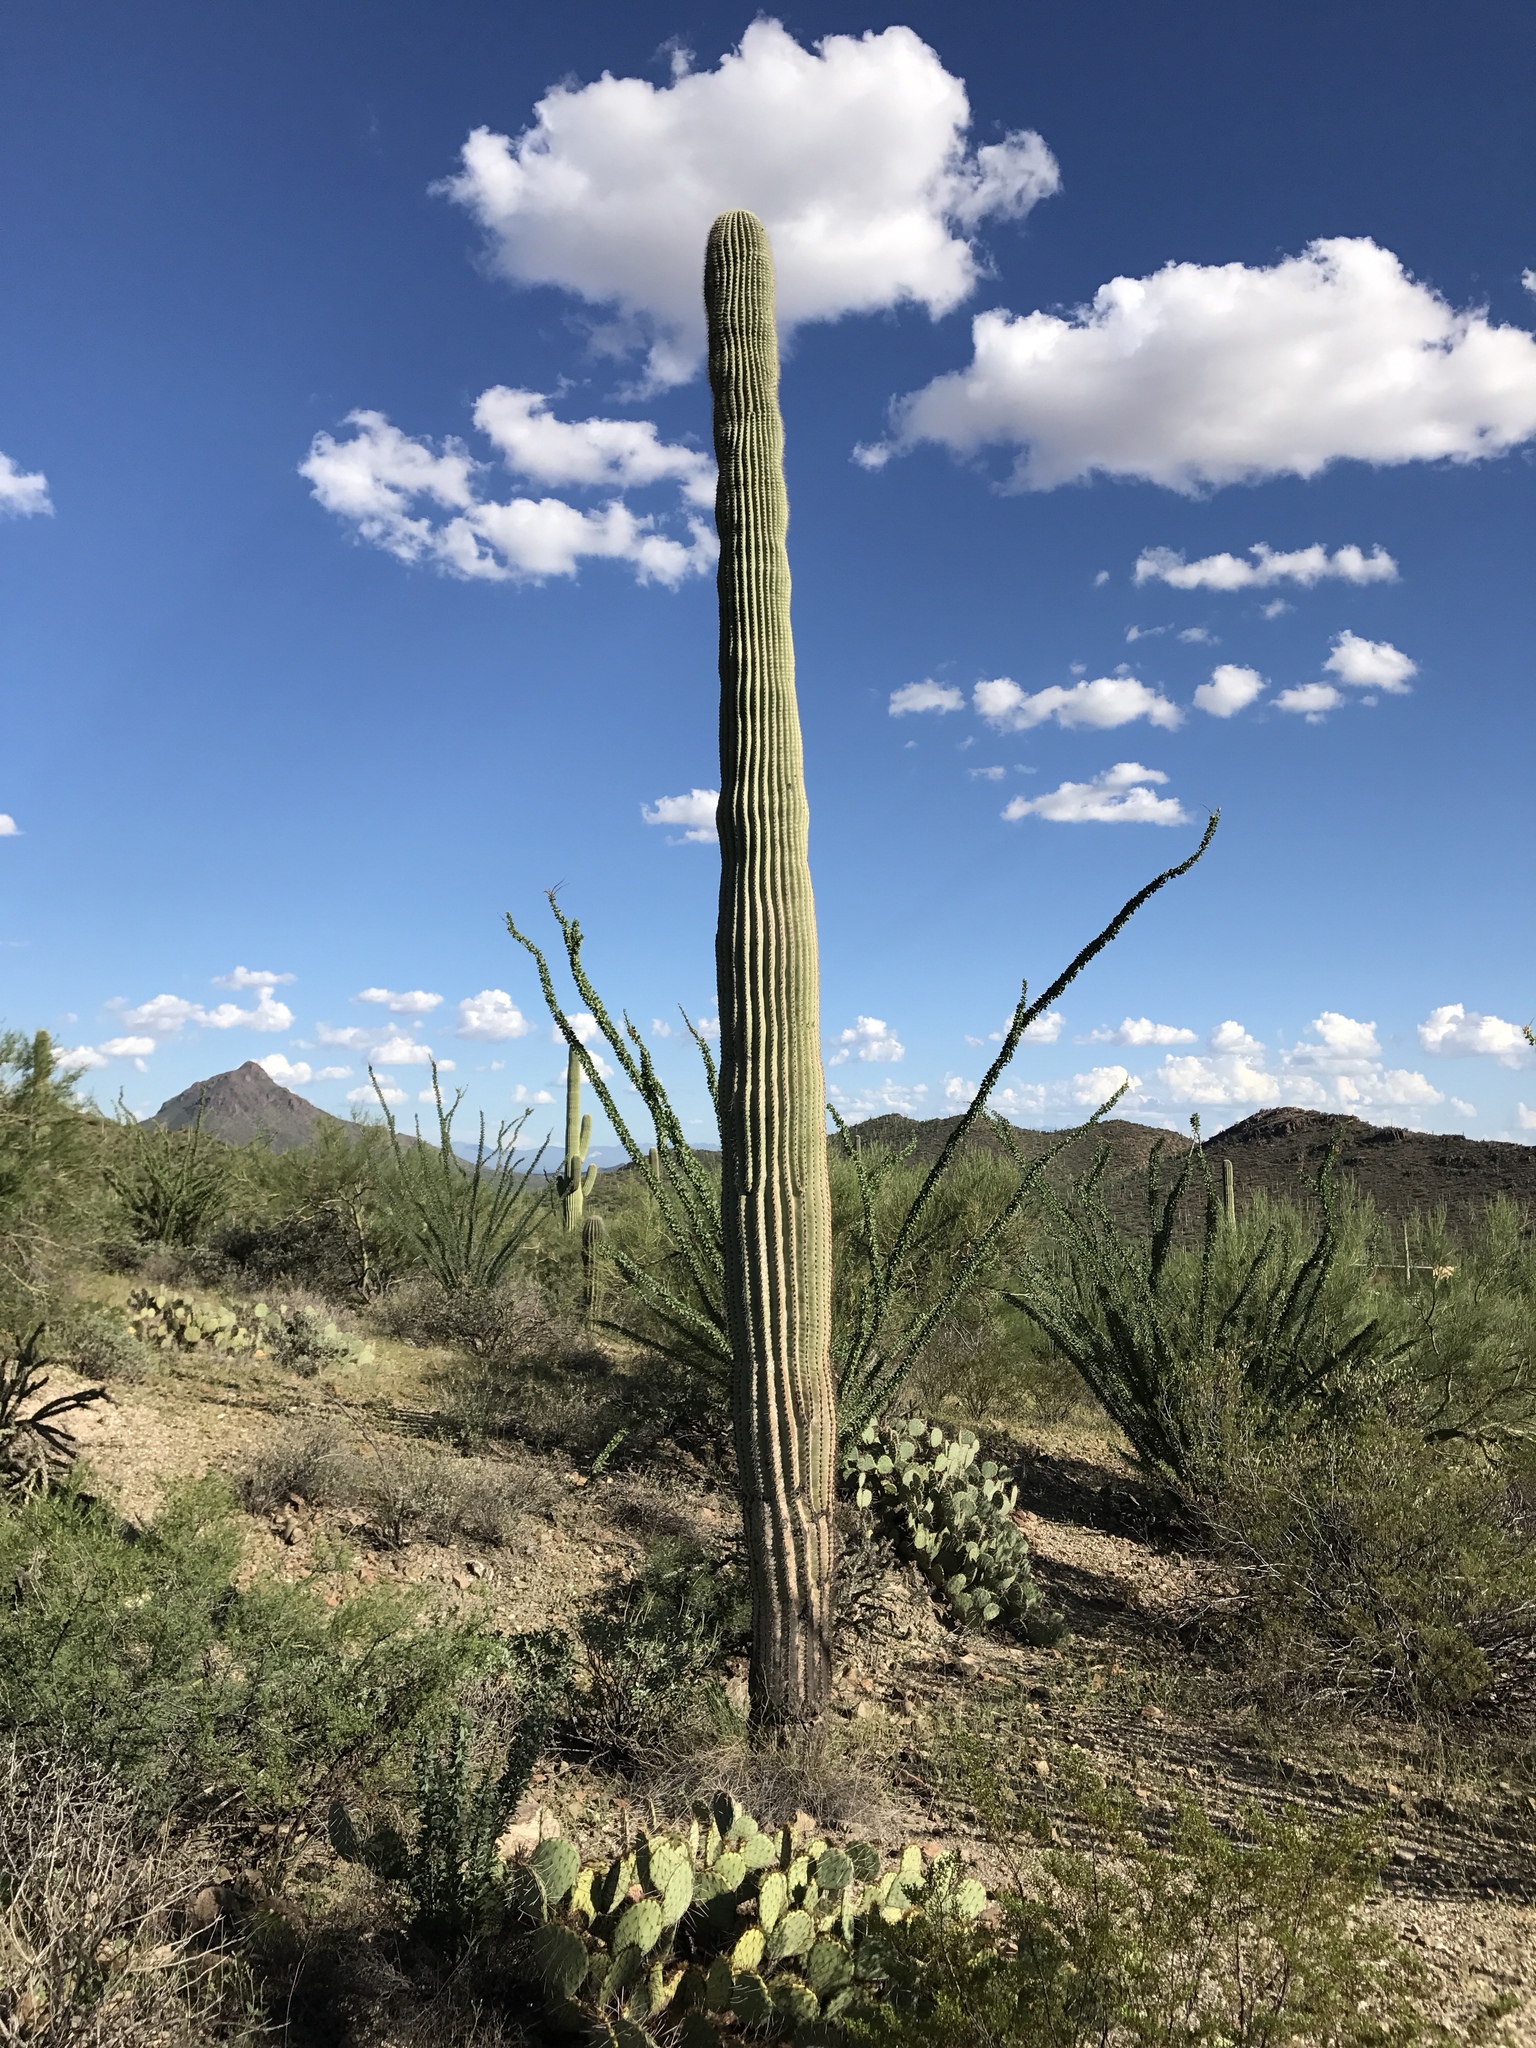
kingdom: Plantae
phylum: Tracheophyta
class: Magnoliopsida
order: Caryophyllales
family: Cactaceae
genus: Carnegiea
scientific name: Carnegiea gigantea
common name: Saguaro
